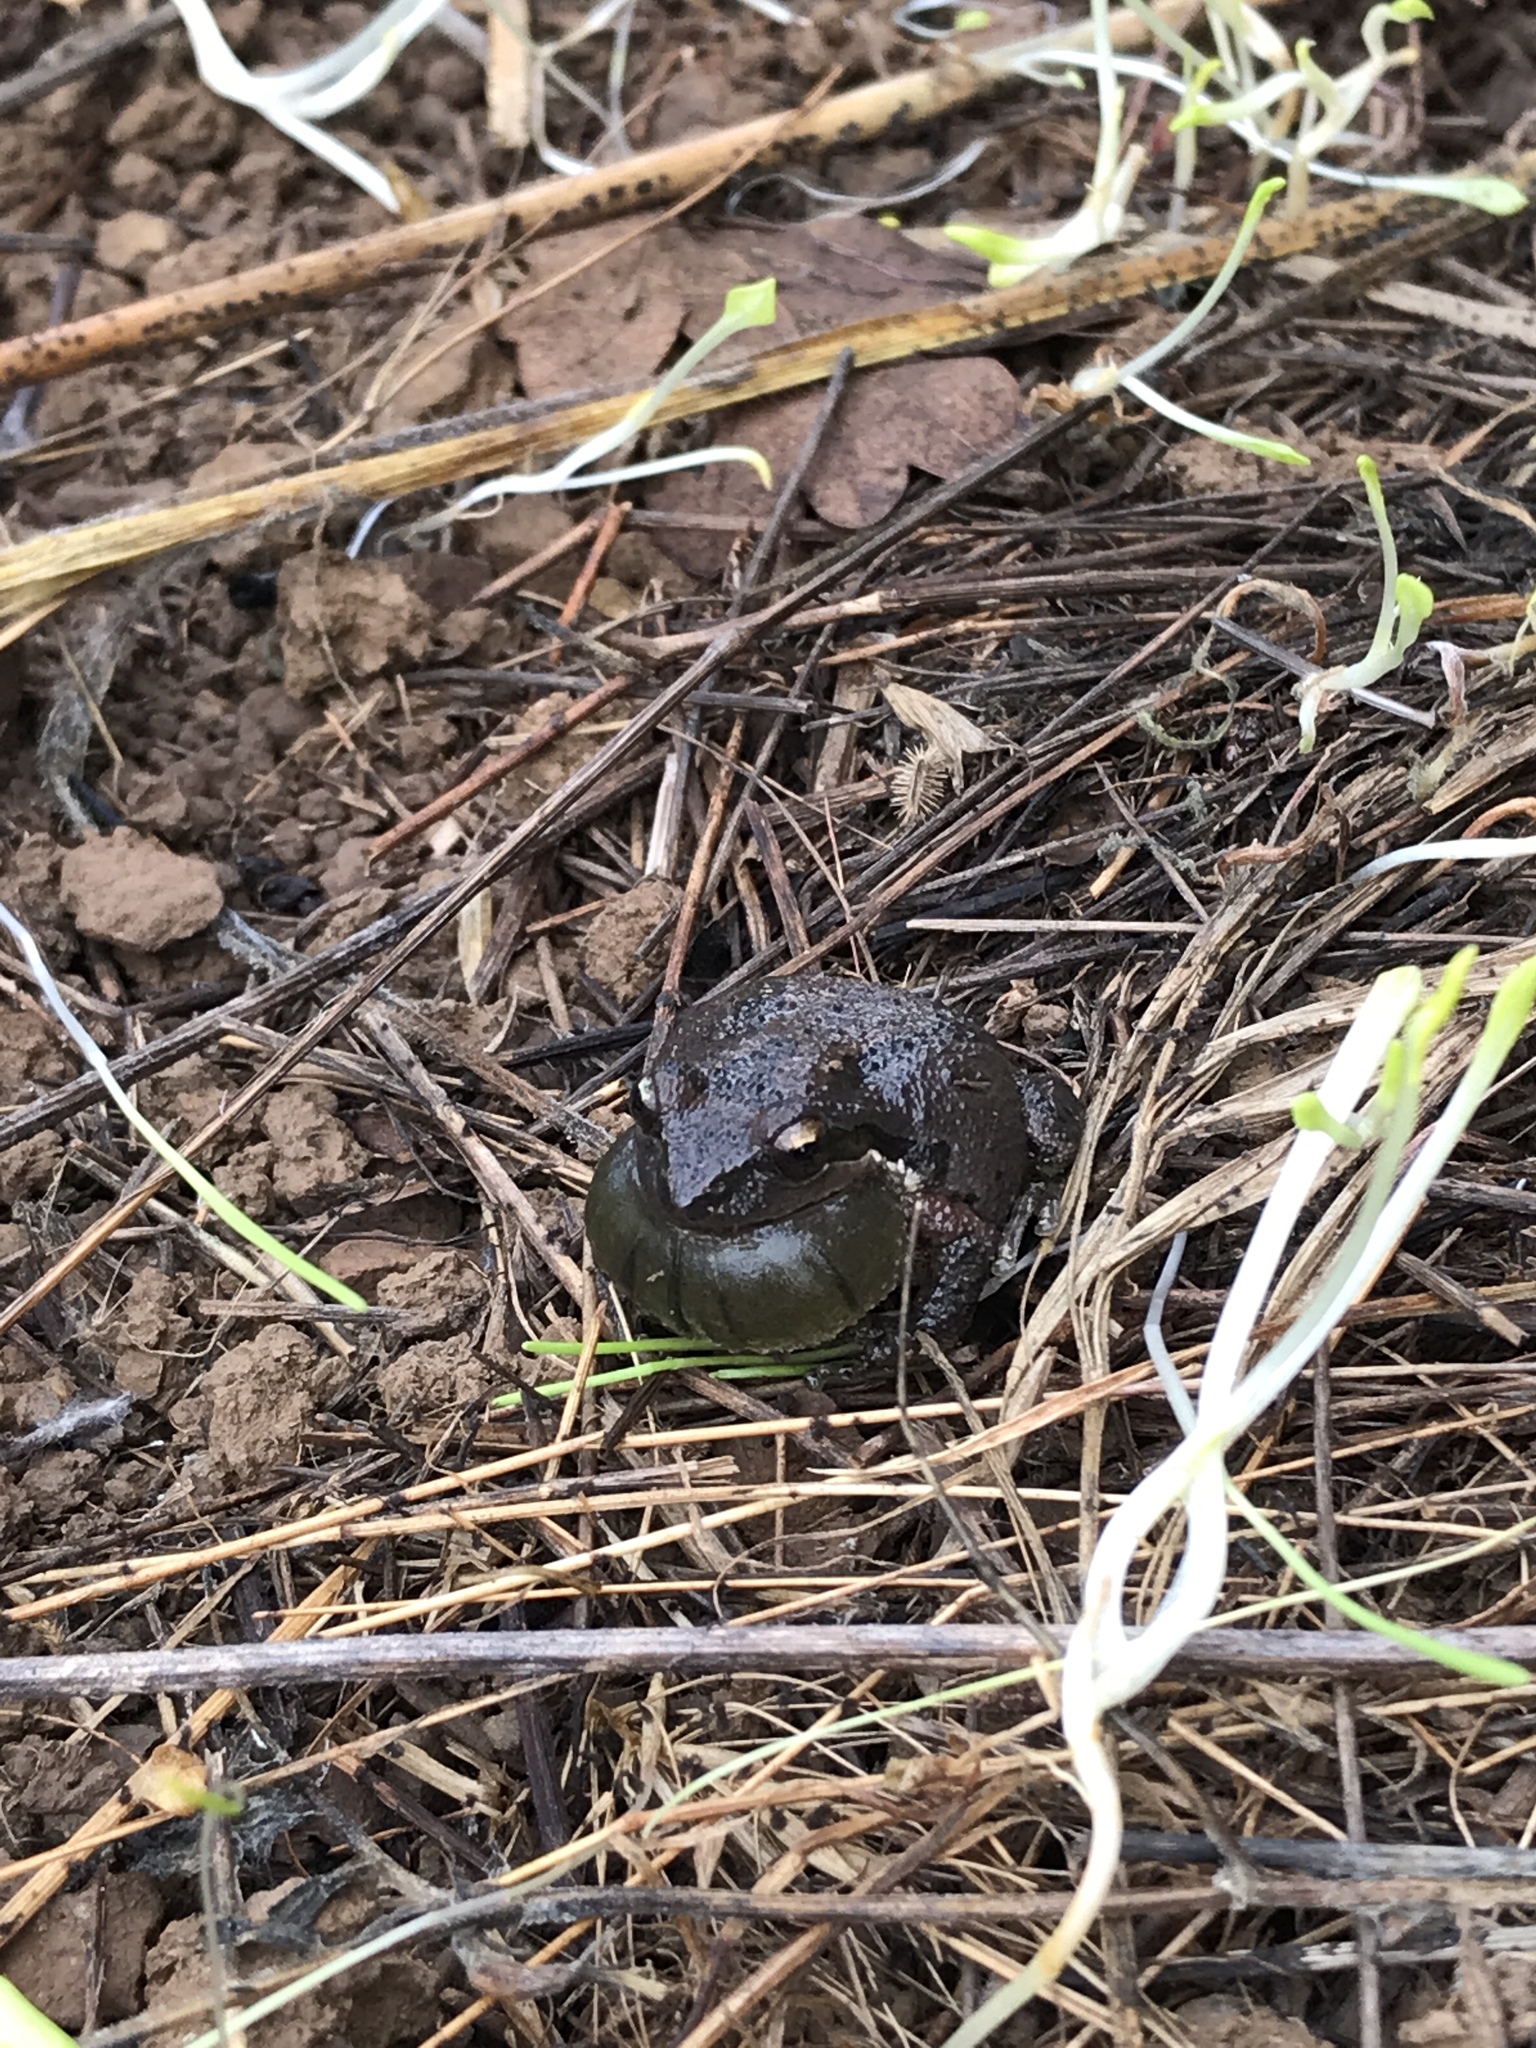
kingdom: Animalia
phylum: Chordata
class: Amphibia
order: Anura
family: Hylidae
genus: Pseudacris
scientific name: Pseudacris regilla
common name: Pacific chorus frog
